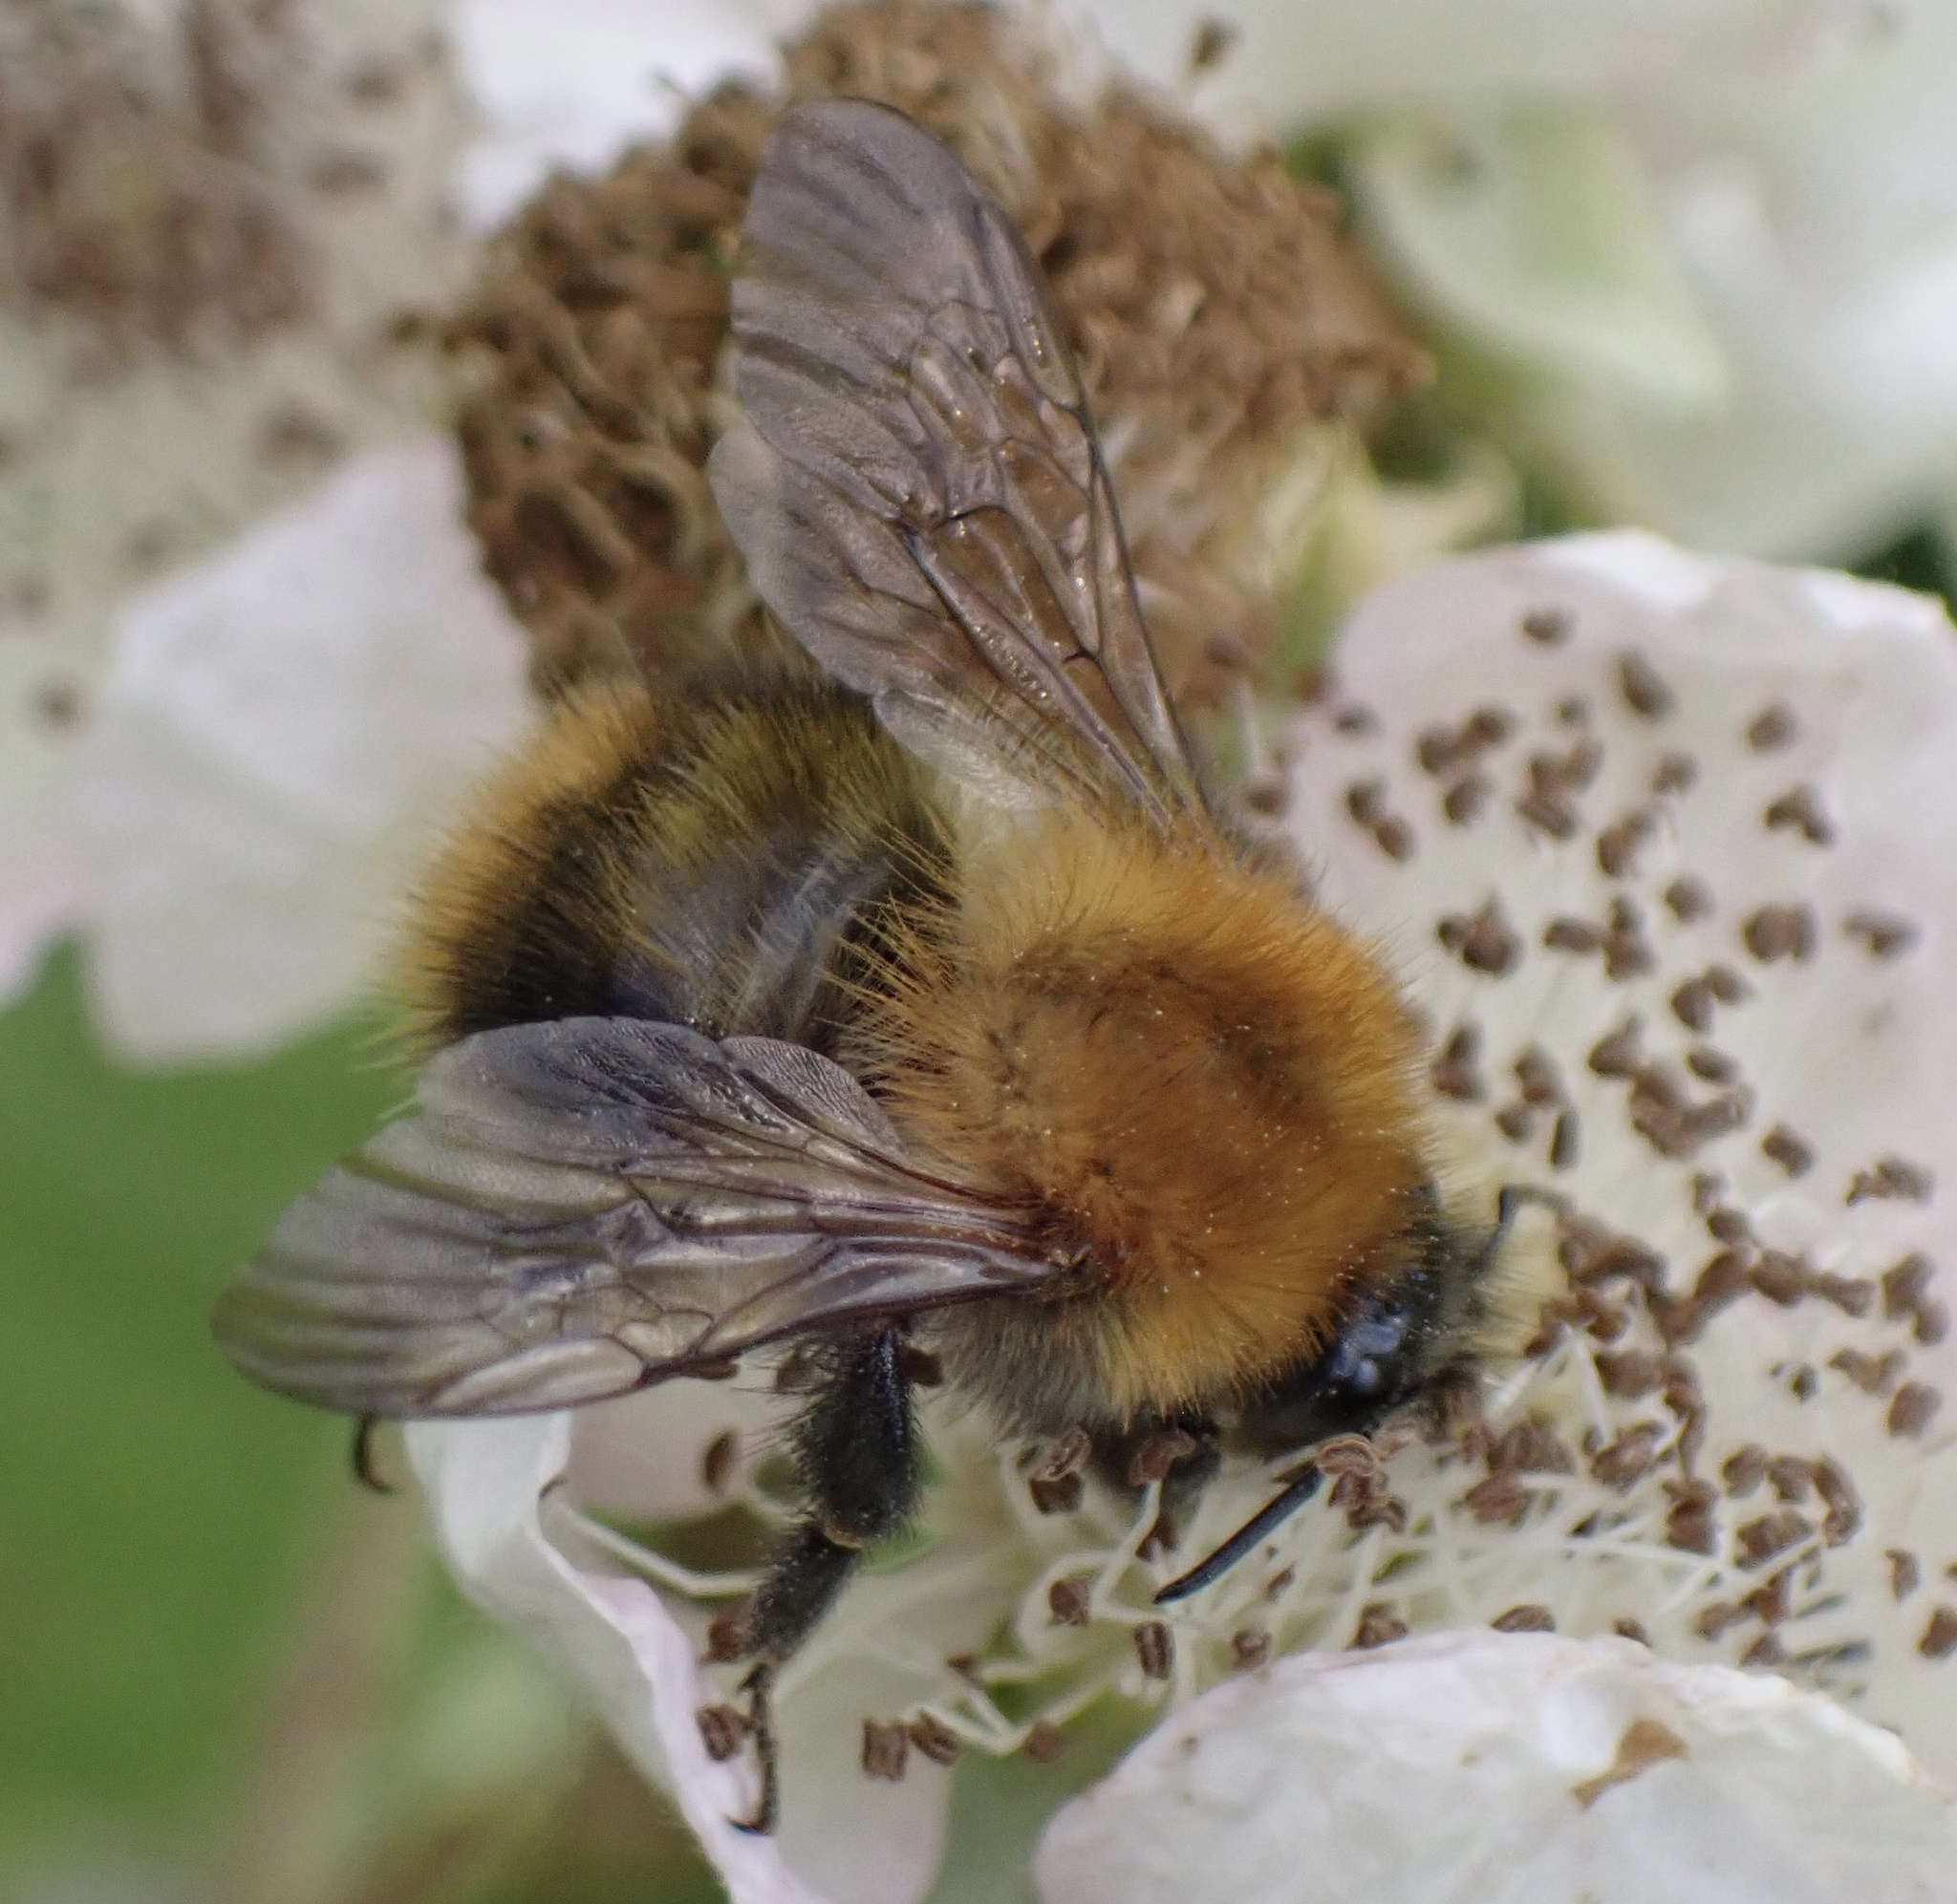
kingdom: Animalia
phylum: Arthropoda
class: Insecta
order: Hymenoptera
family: Apidae
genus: Bombus
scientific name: Bombus pascuorum
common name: Common carder bee
